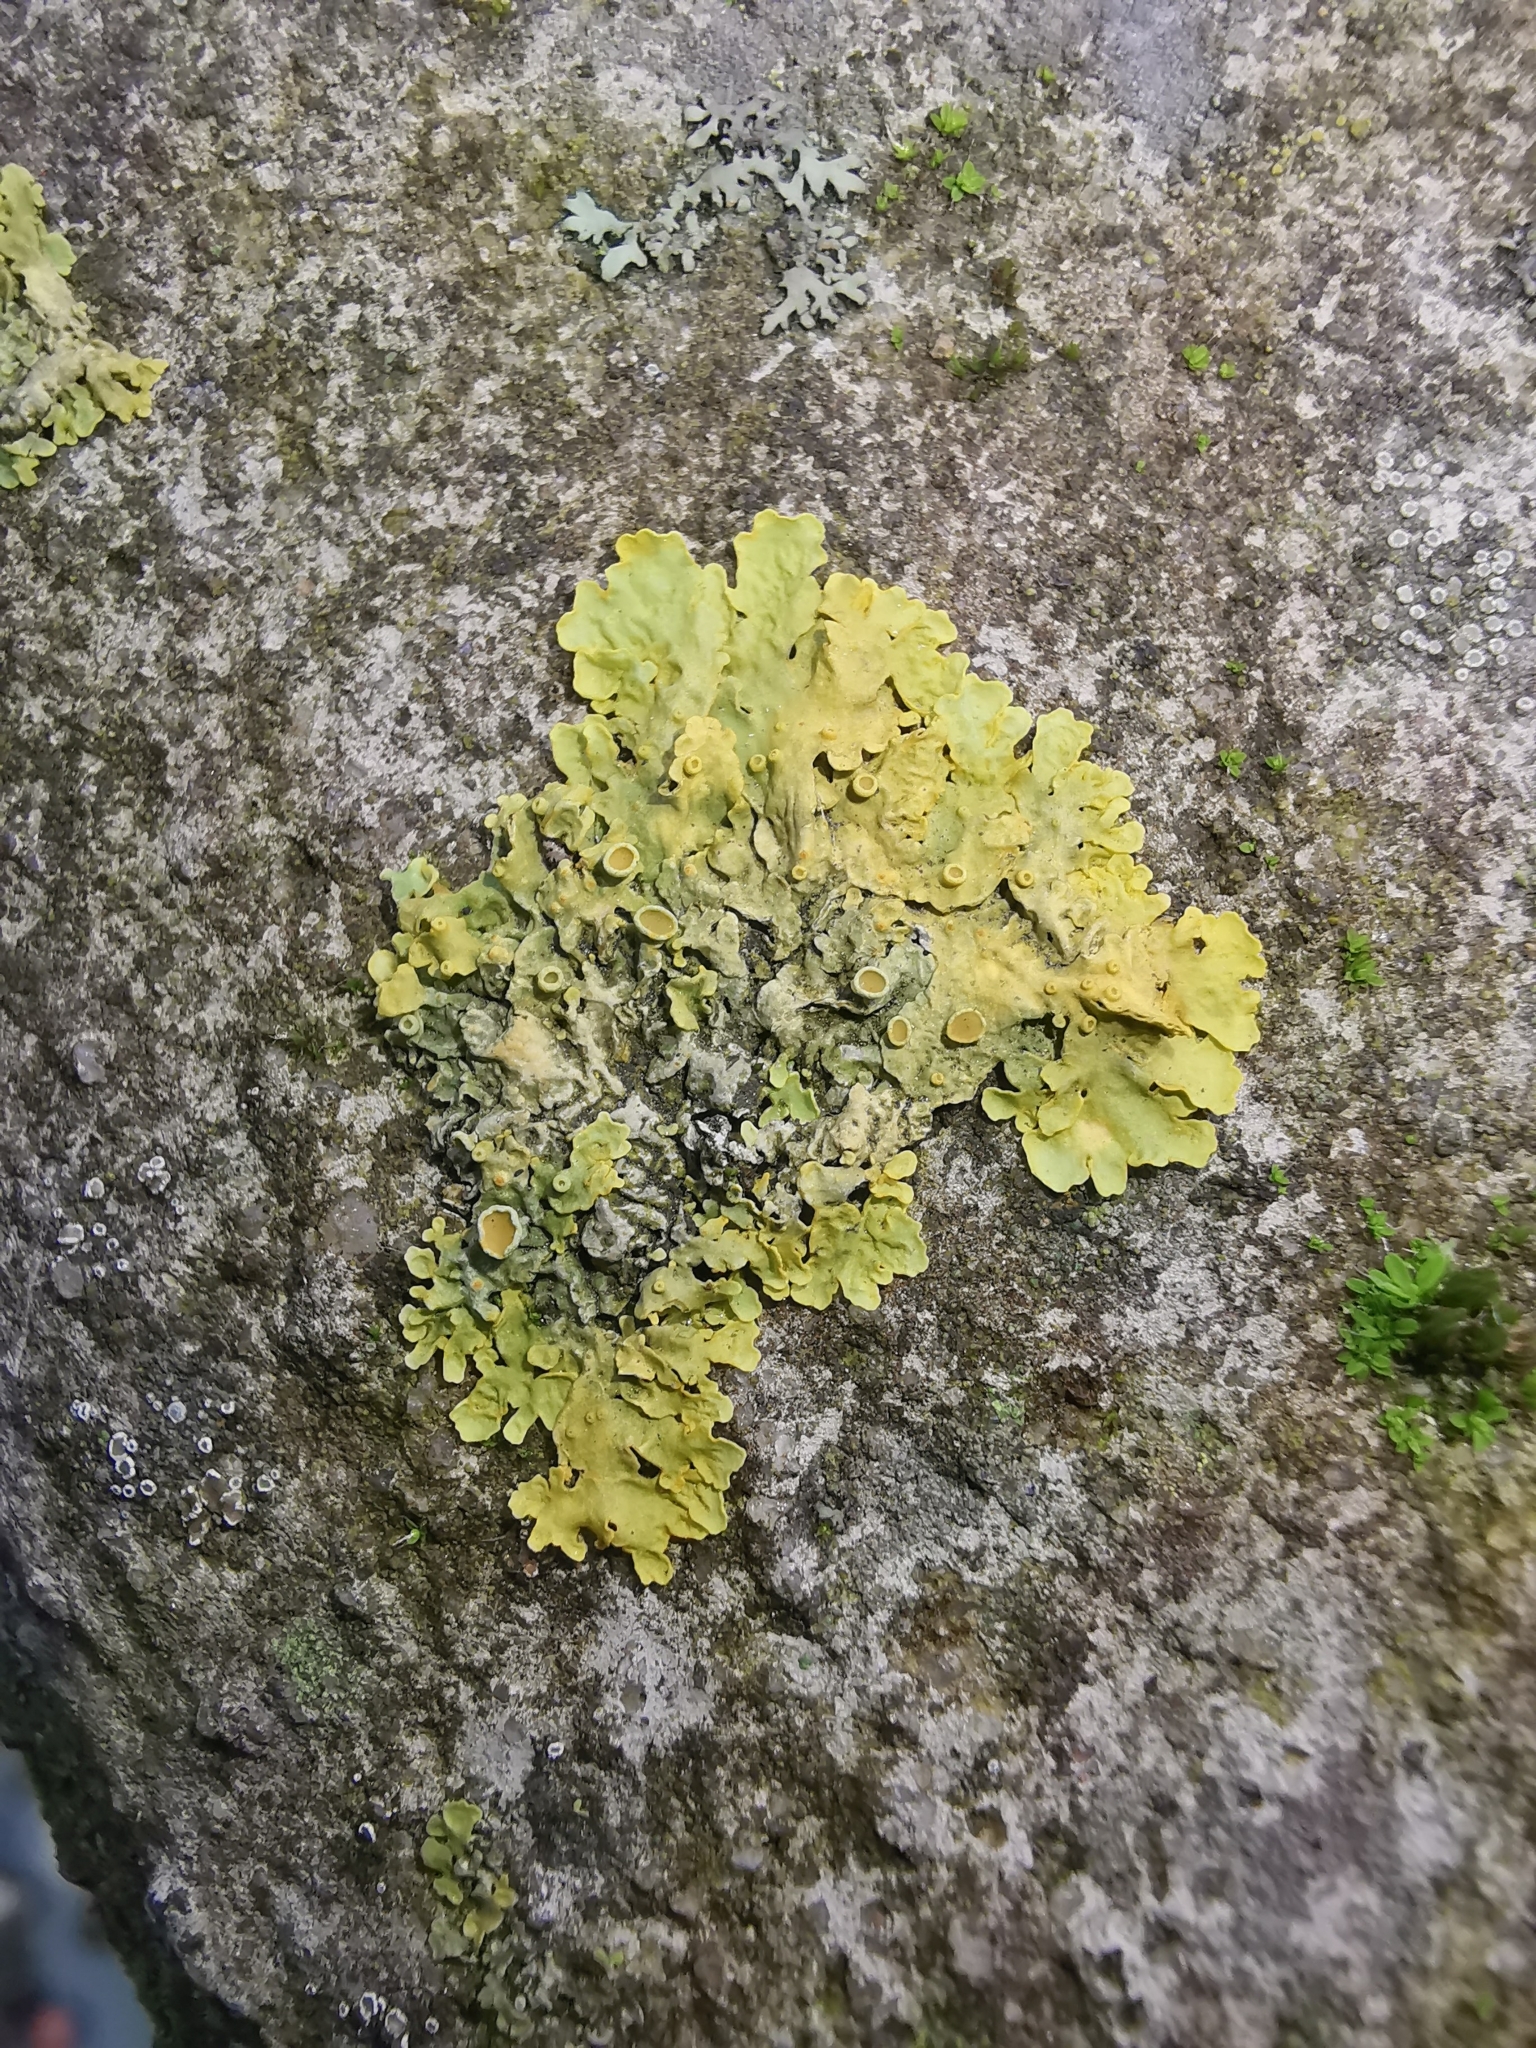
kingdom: Fungi
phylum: Ascomycota
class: Lecanoromycetes
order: Teloschistales
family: Teloschistaceae
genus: Xanthoria
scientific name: Xanthoria parietina
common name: Common orange lichen
